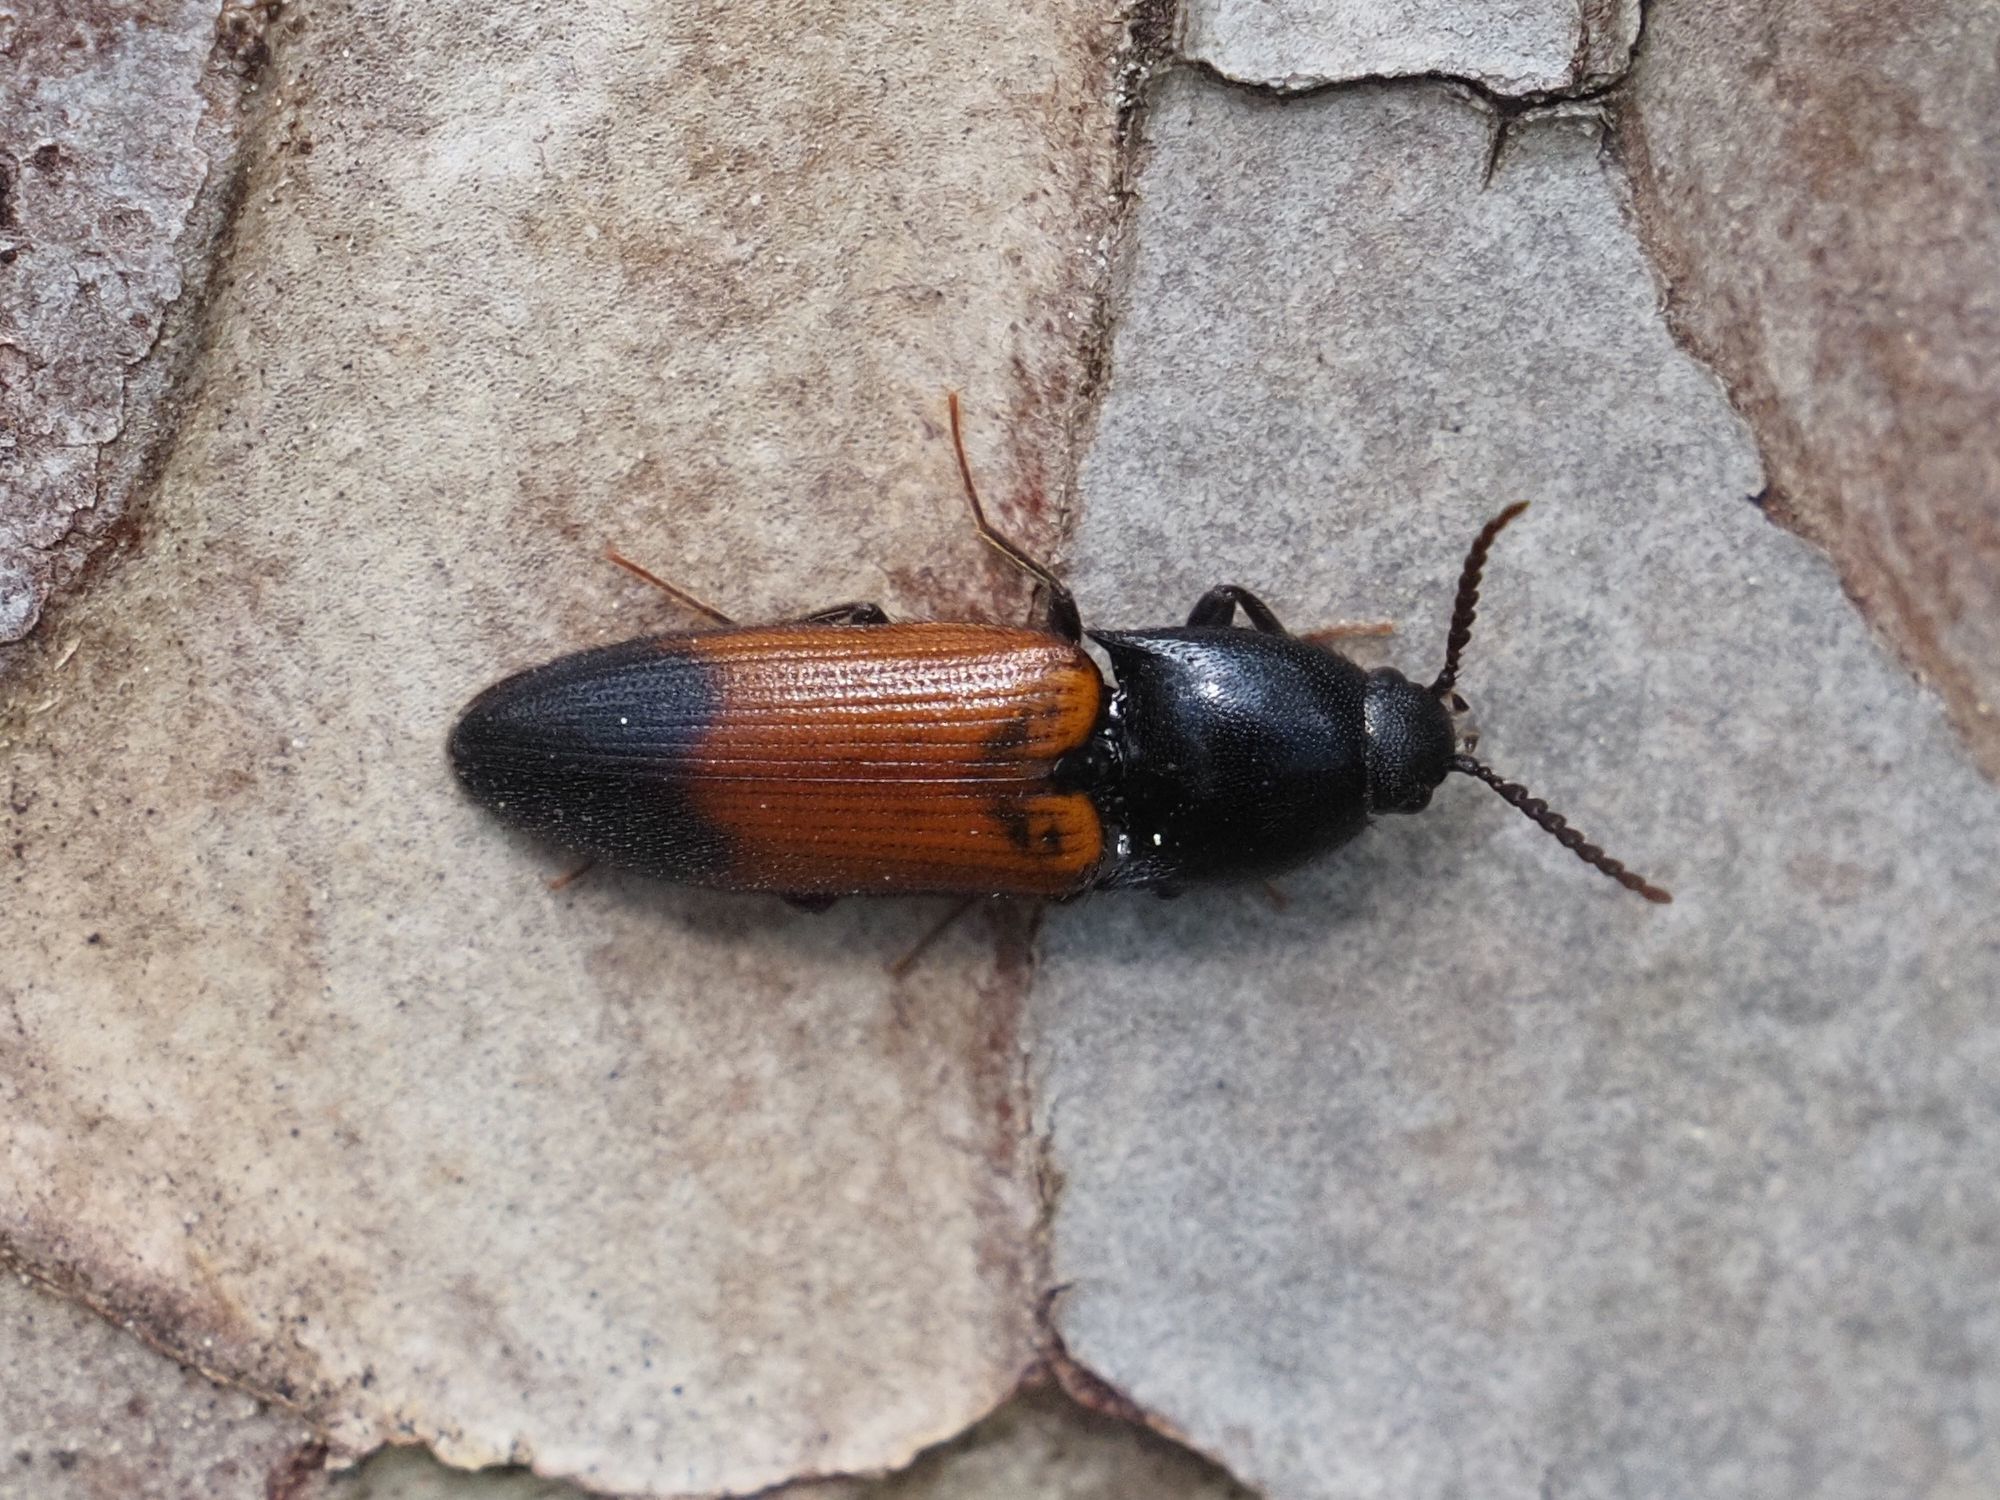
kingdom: Animalia
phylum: Arthropoda
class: Insecta
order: Coleoptera
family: Elateridae
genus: Ampedus
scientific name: Ampedus balteatus
